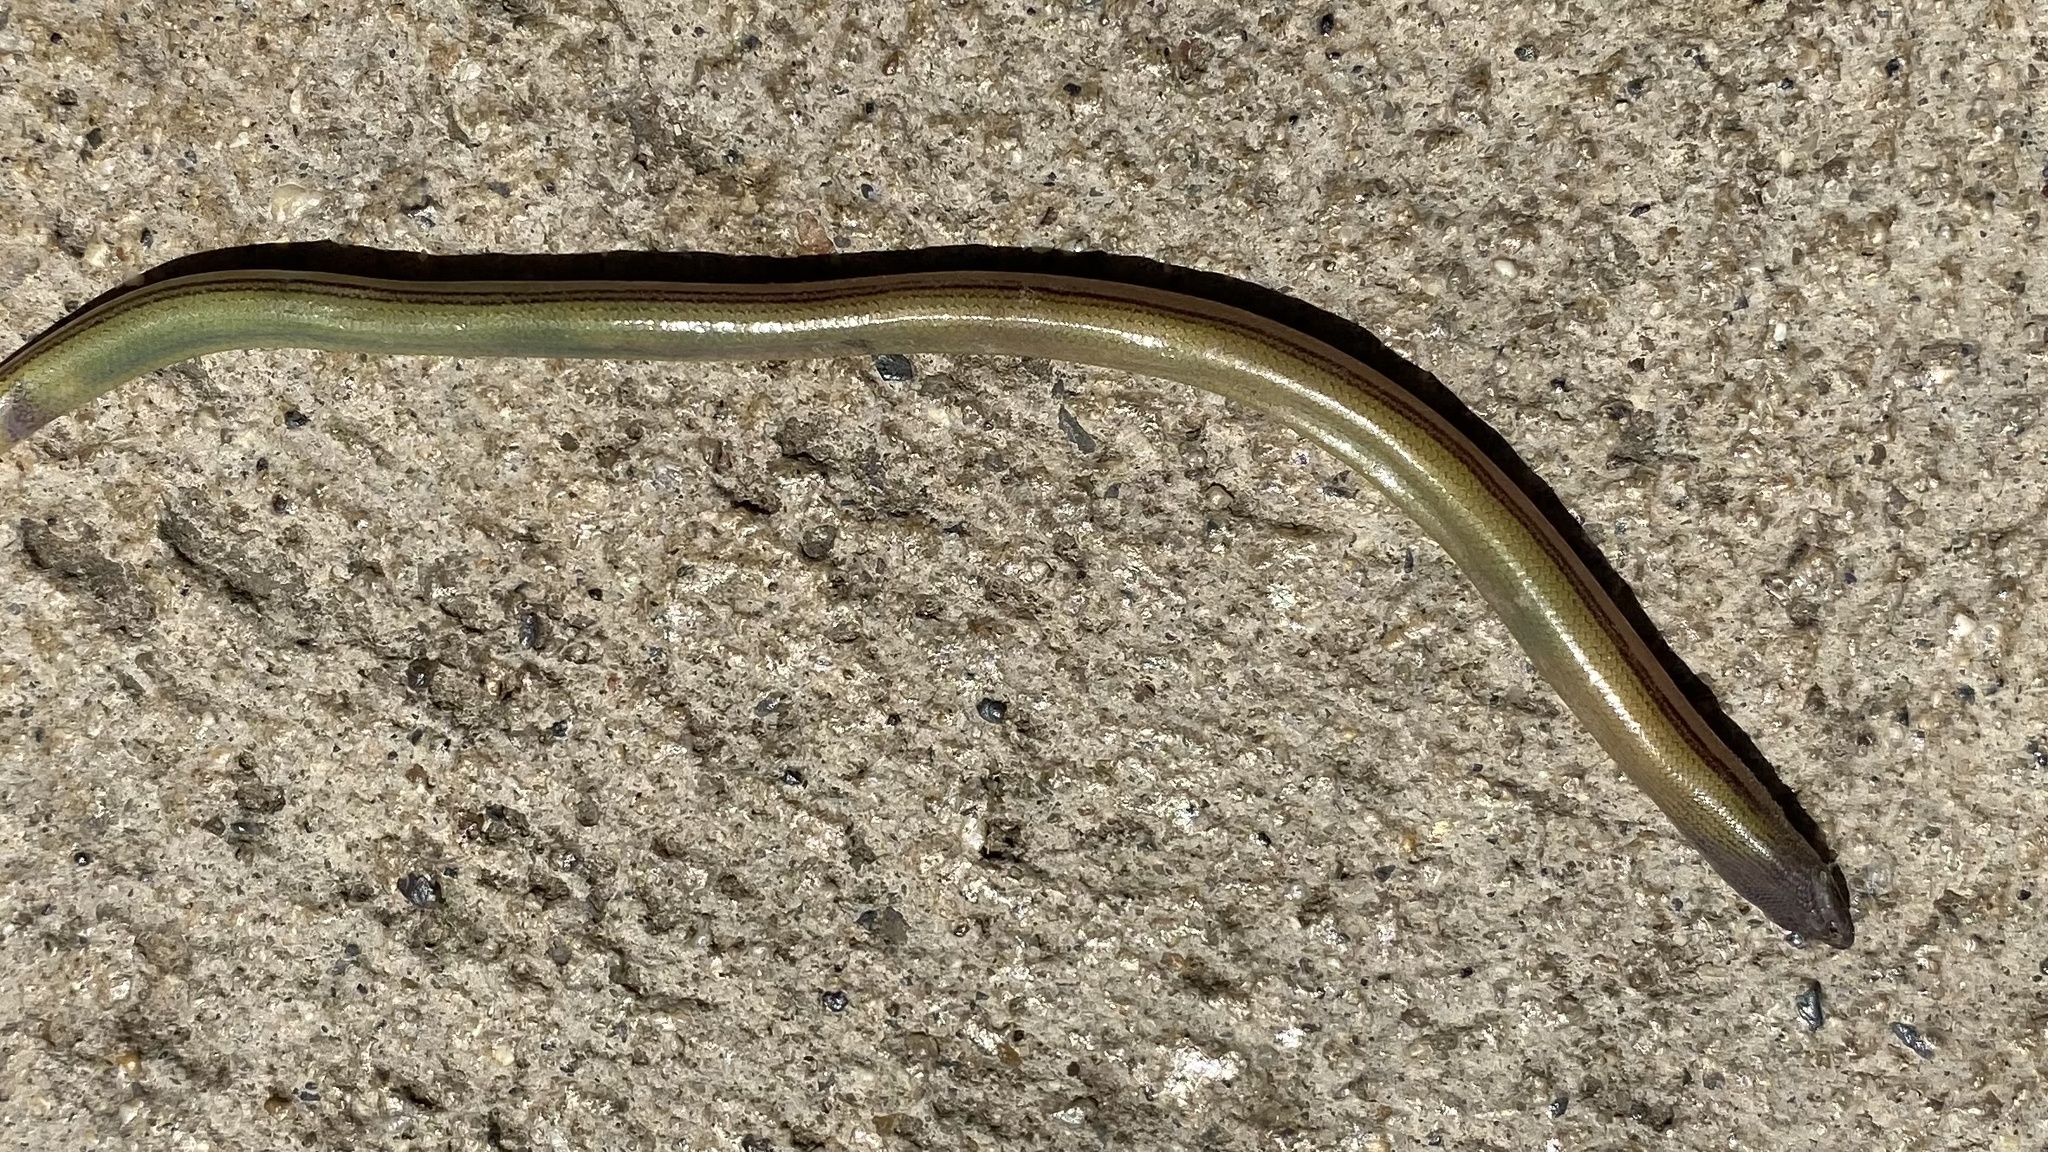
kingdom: Animalia
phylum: Chordata
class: Squamata
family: Anguidae
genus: Anniella
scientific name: Anniella pulchra
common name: California legless lizard
